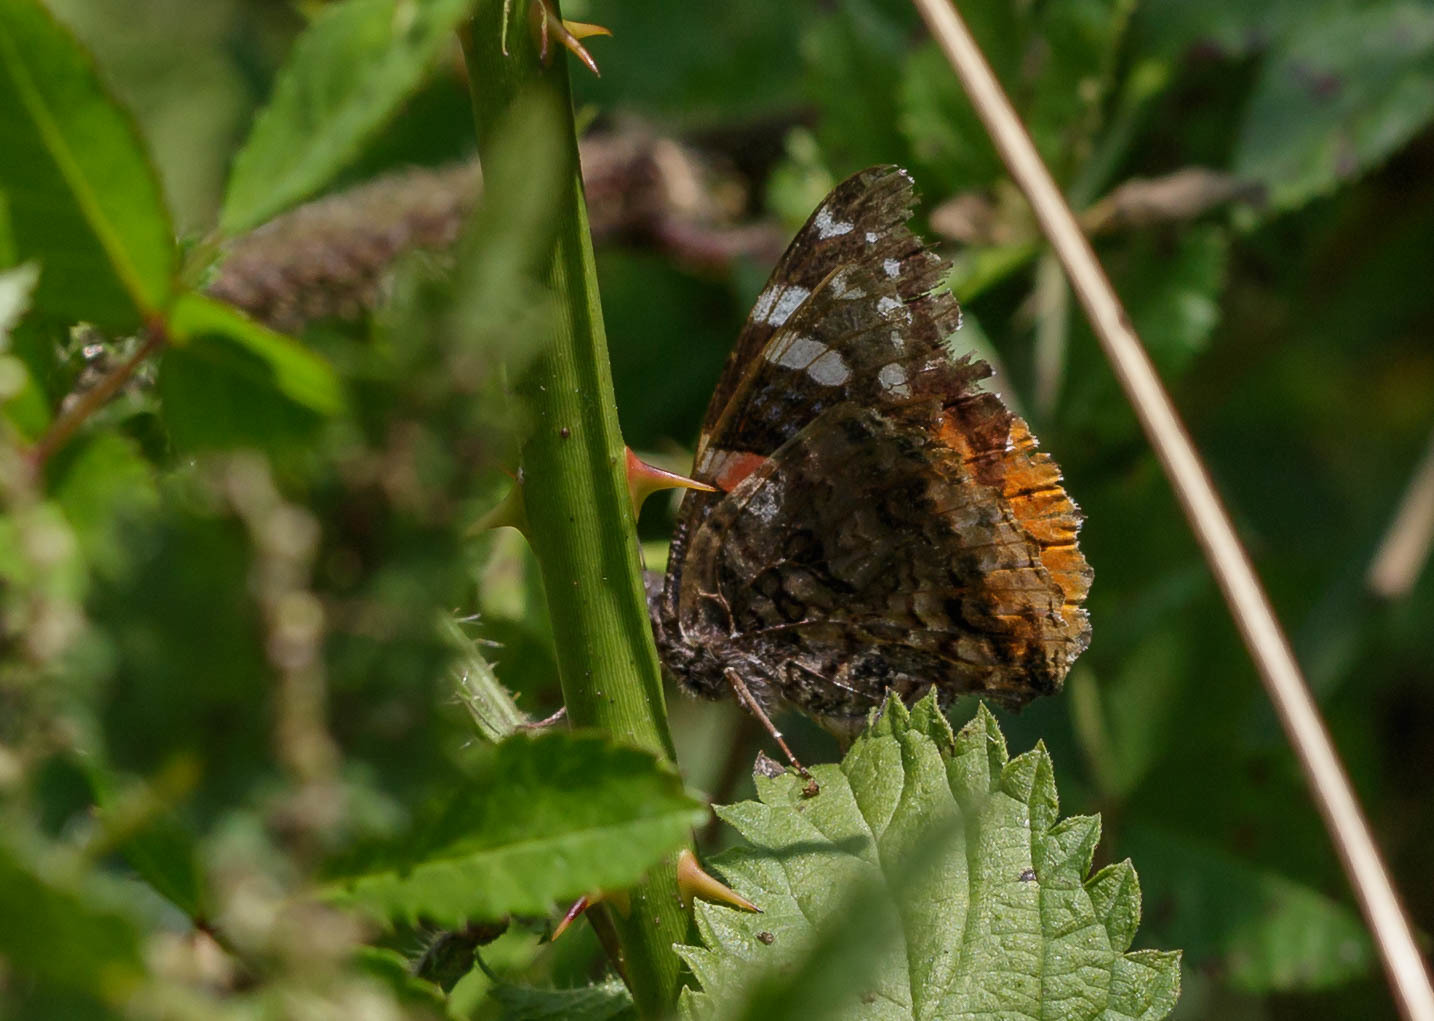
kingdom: Animalia
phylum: Arthropoda
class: Insecta
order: Lepidoptera
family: Nymphalidae
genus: Vanessa
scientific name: Vanessa atalanta
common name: Red admiral
